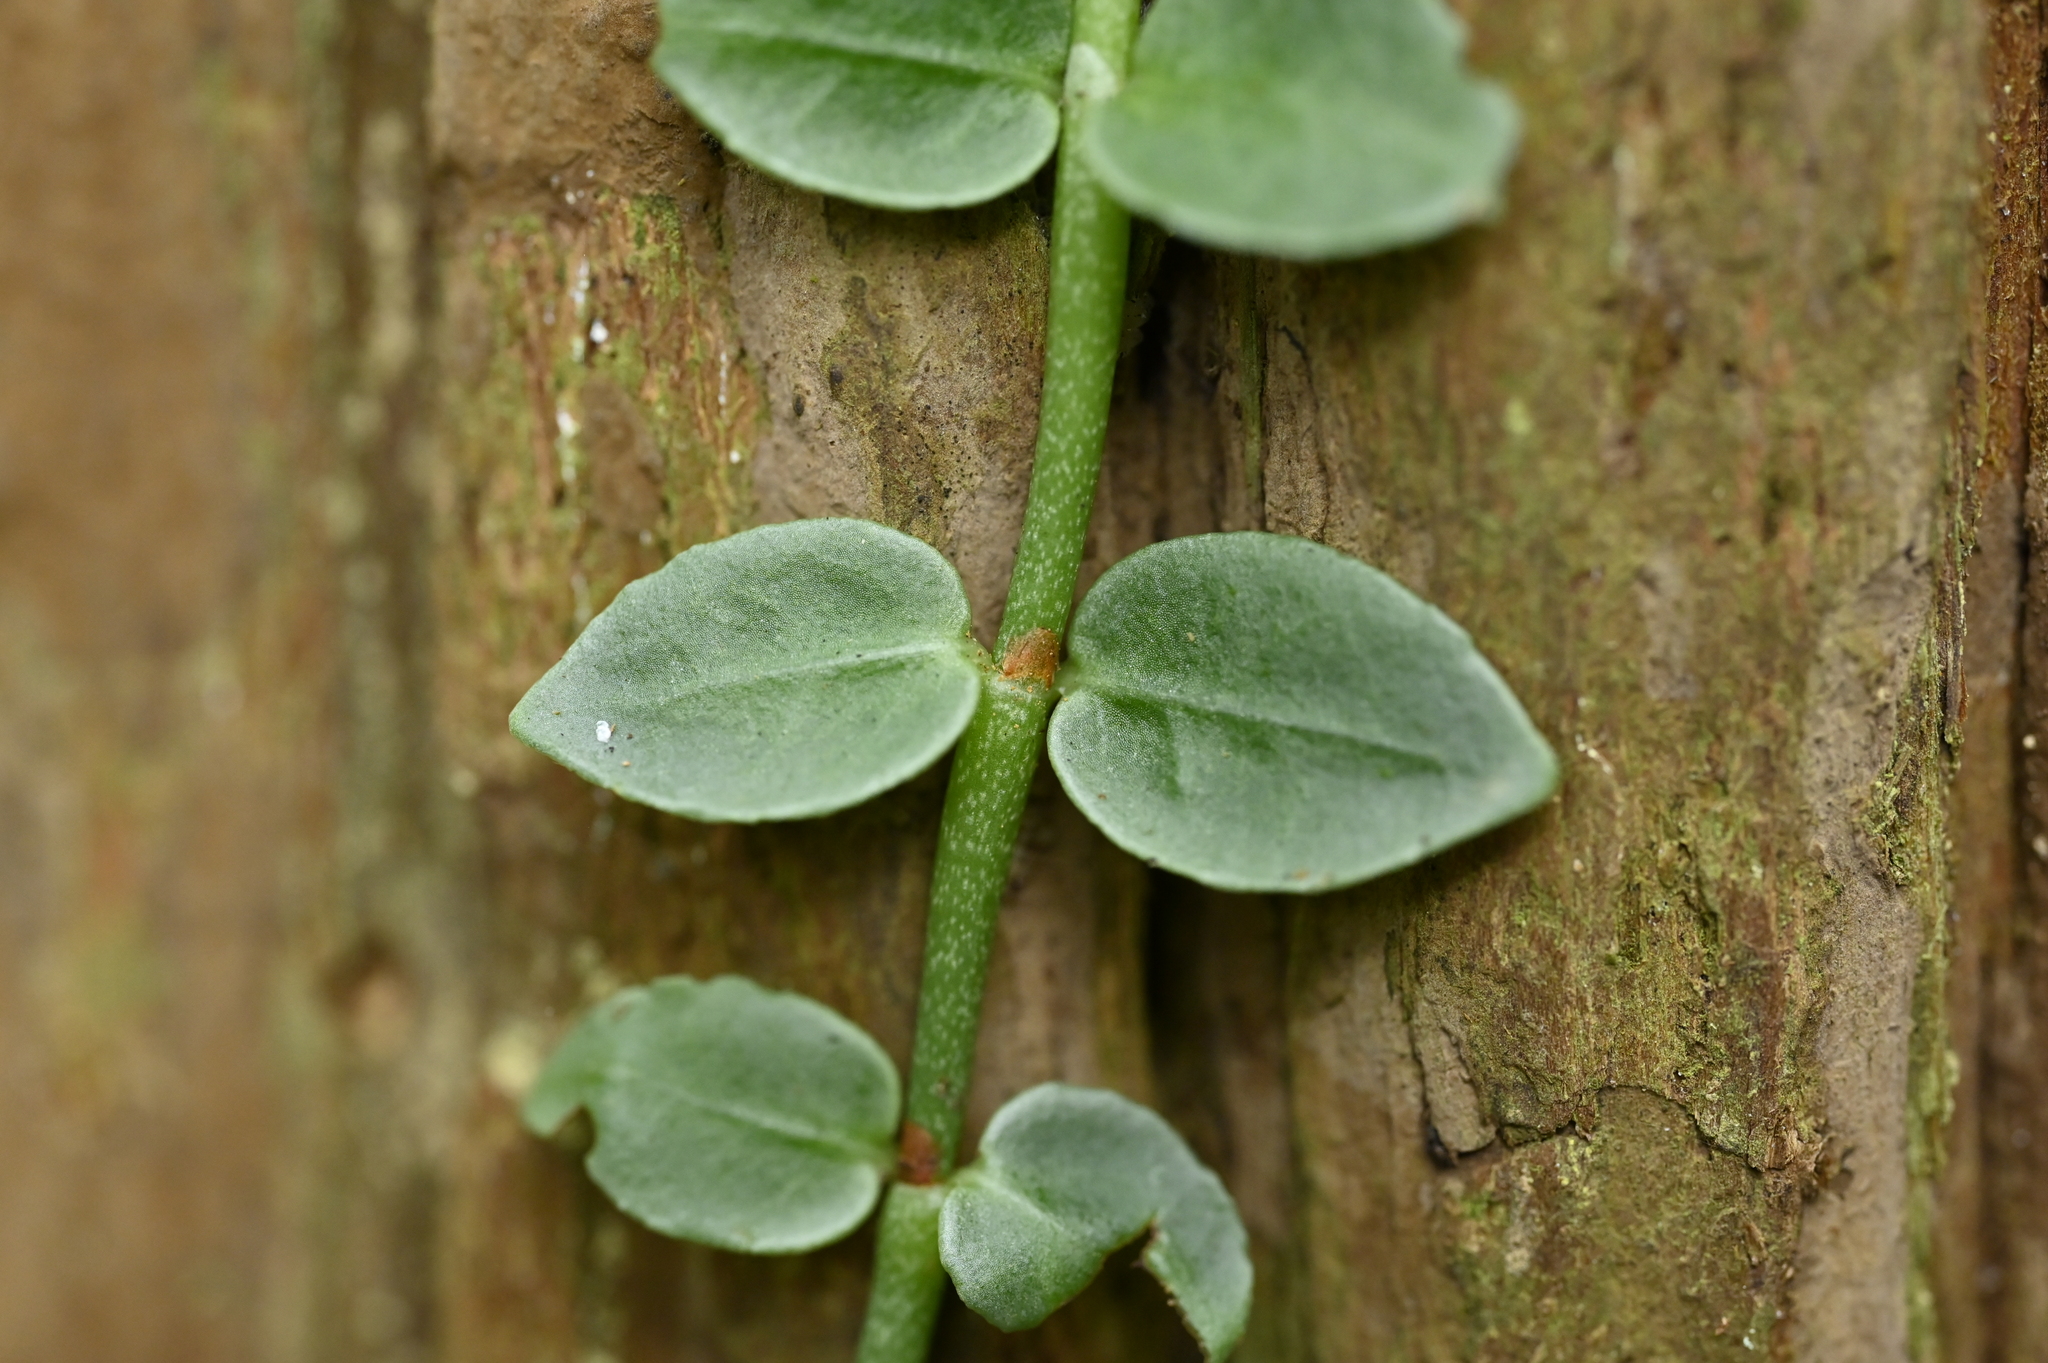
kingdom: Plantae
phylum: Tracheophyta
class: Magnoliopsida
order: Gentianales
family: Rubiaceae
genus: Psychotria
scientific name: Psychotria serpens
